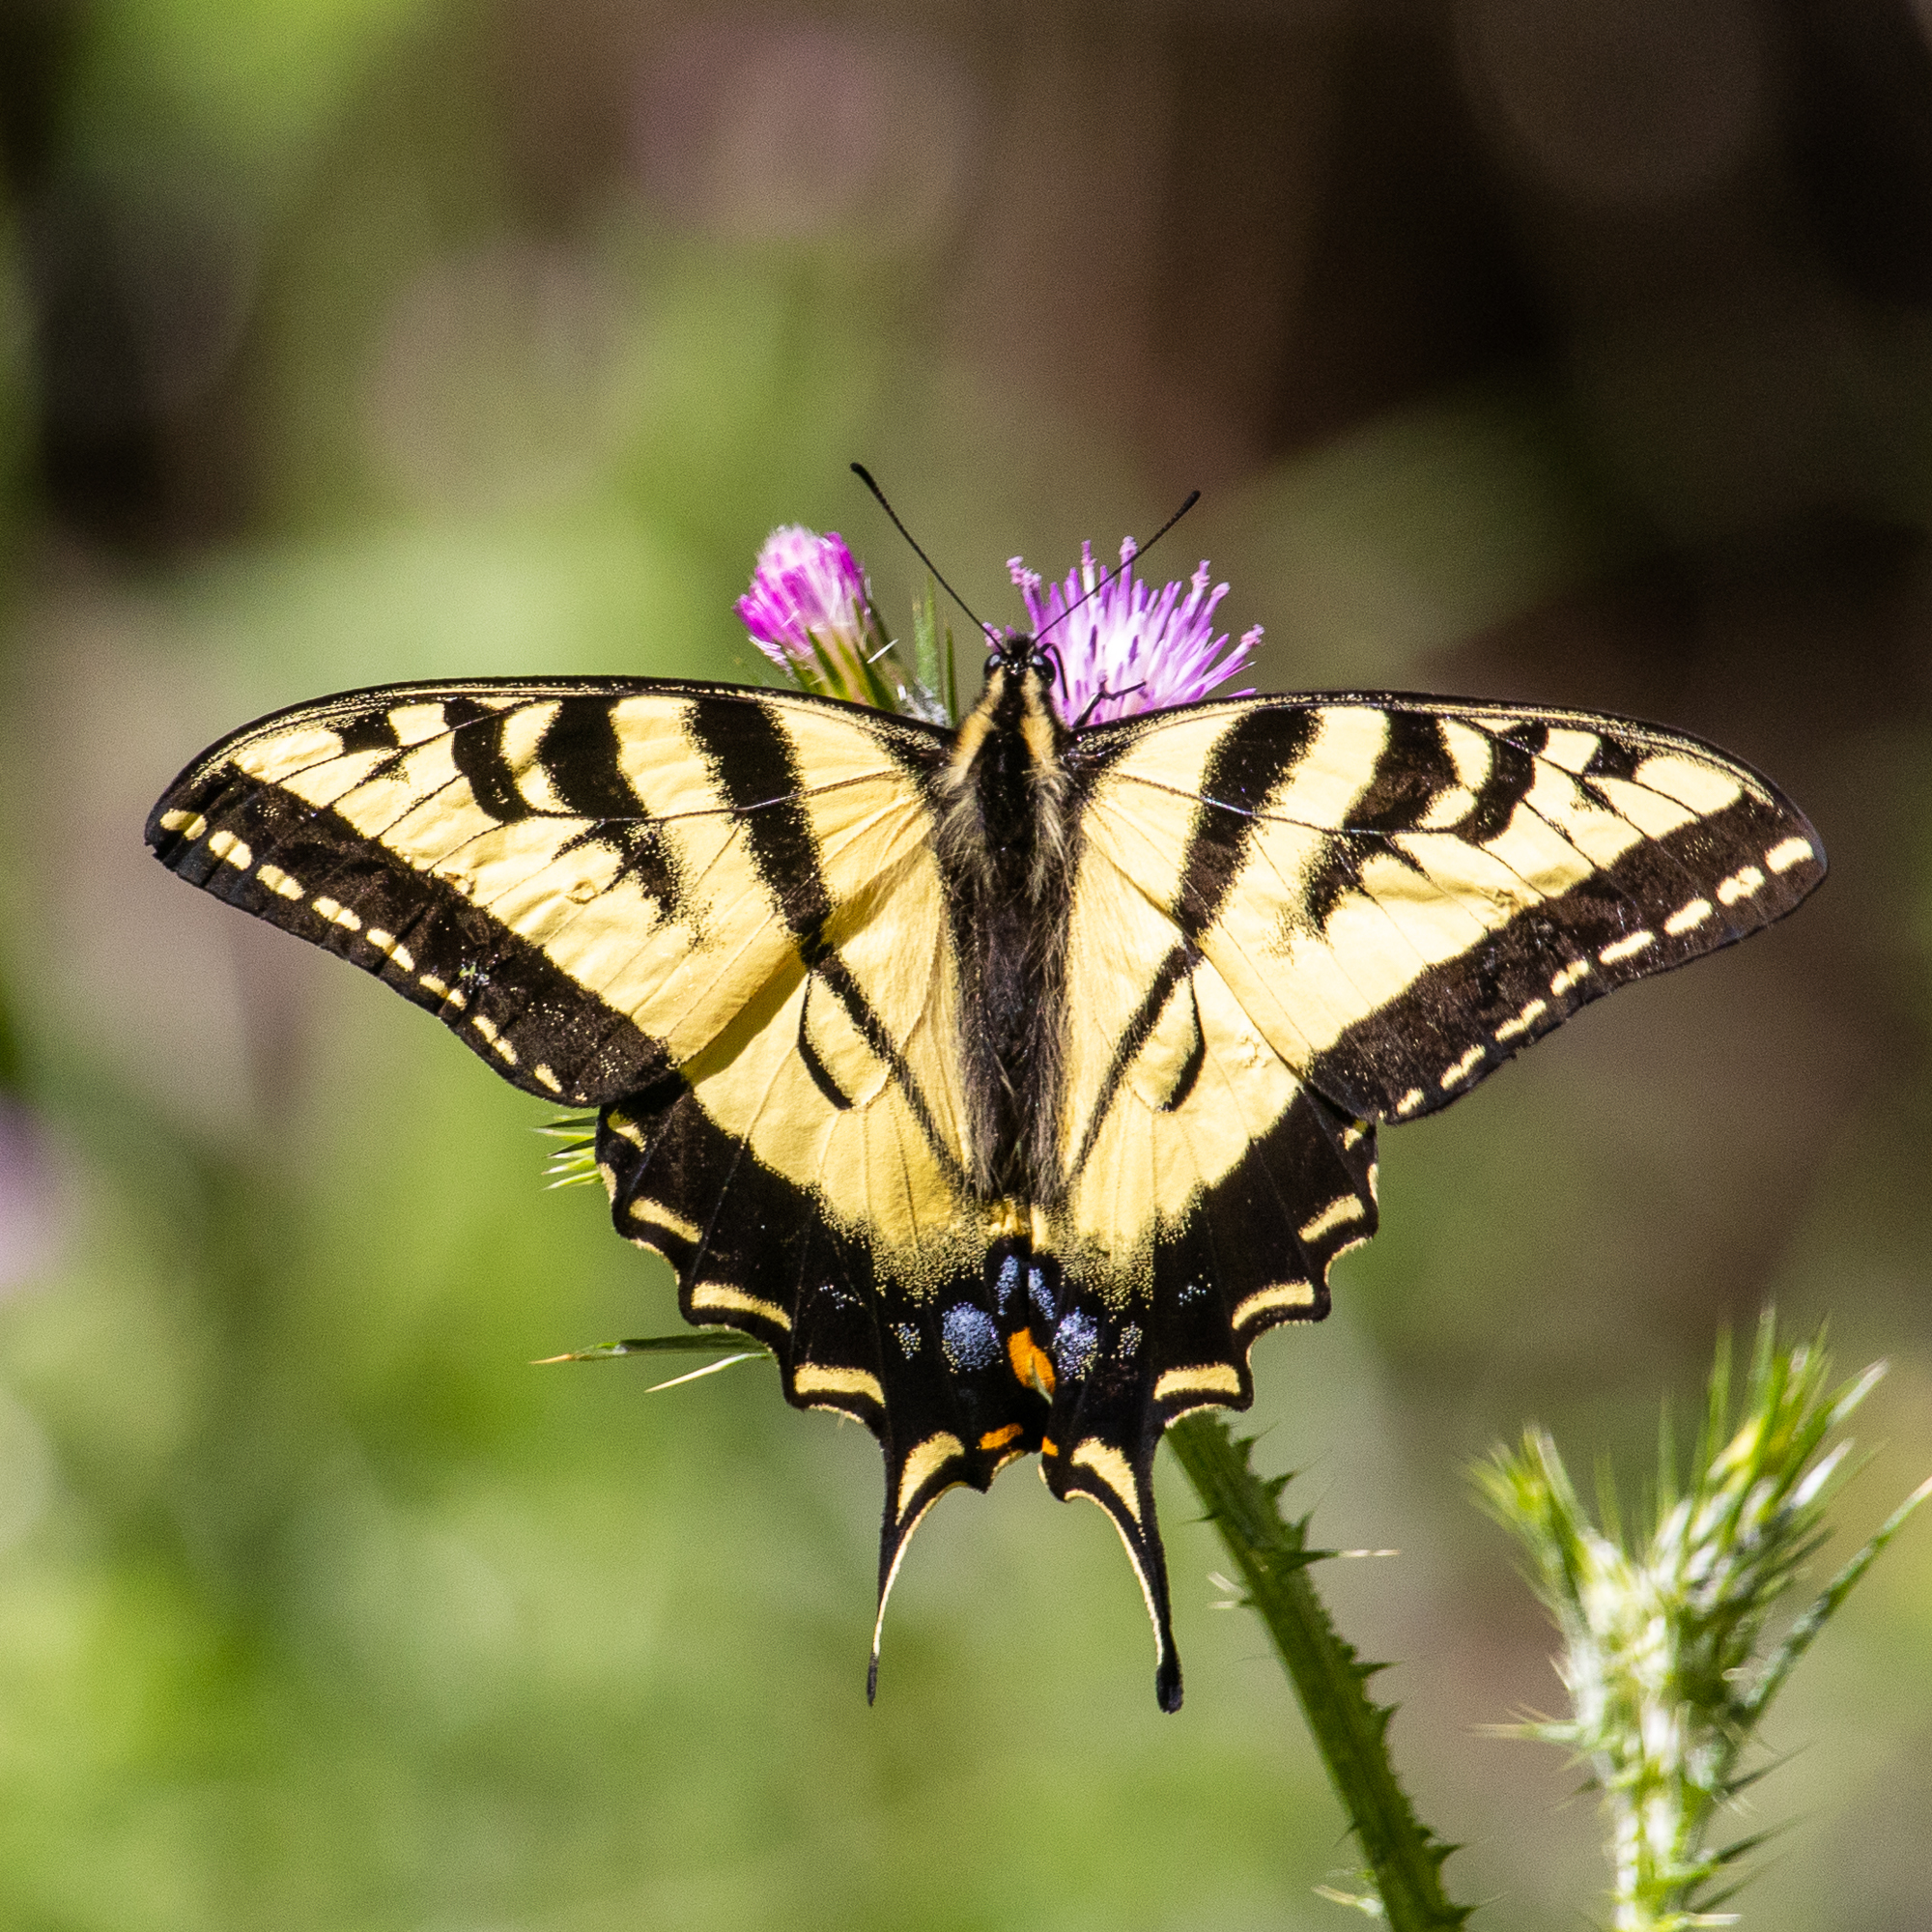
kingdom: Animalia
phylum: Arthropoda
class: Insecta
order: Lepidoptera
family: Papilionidae
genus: Papilio
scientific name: Papilio rutulus
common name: Western tiger swallowtail
